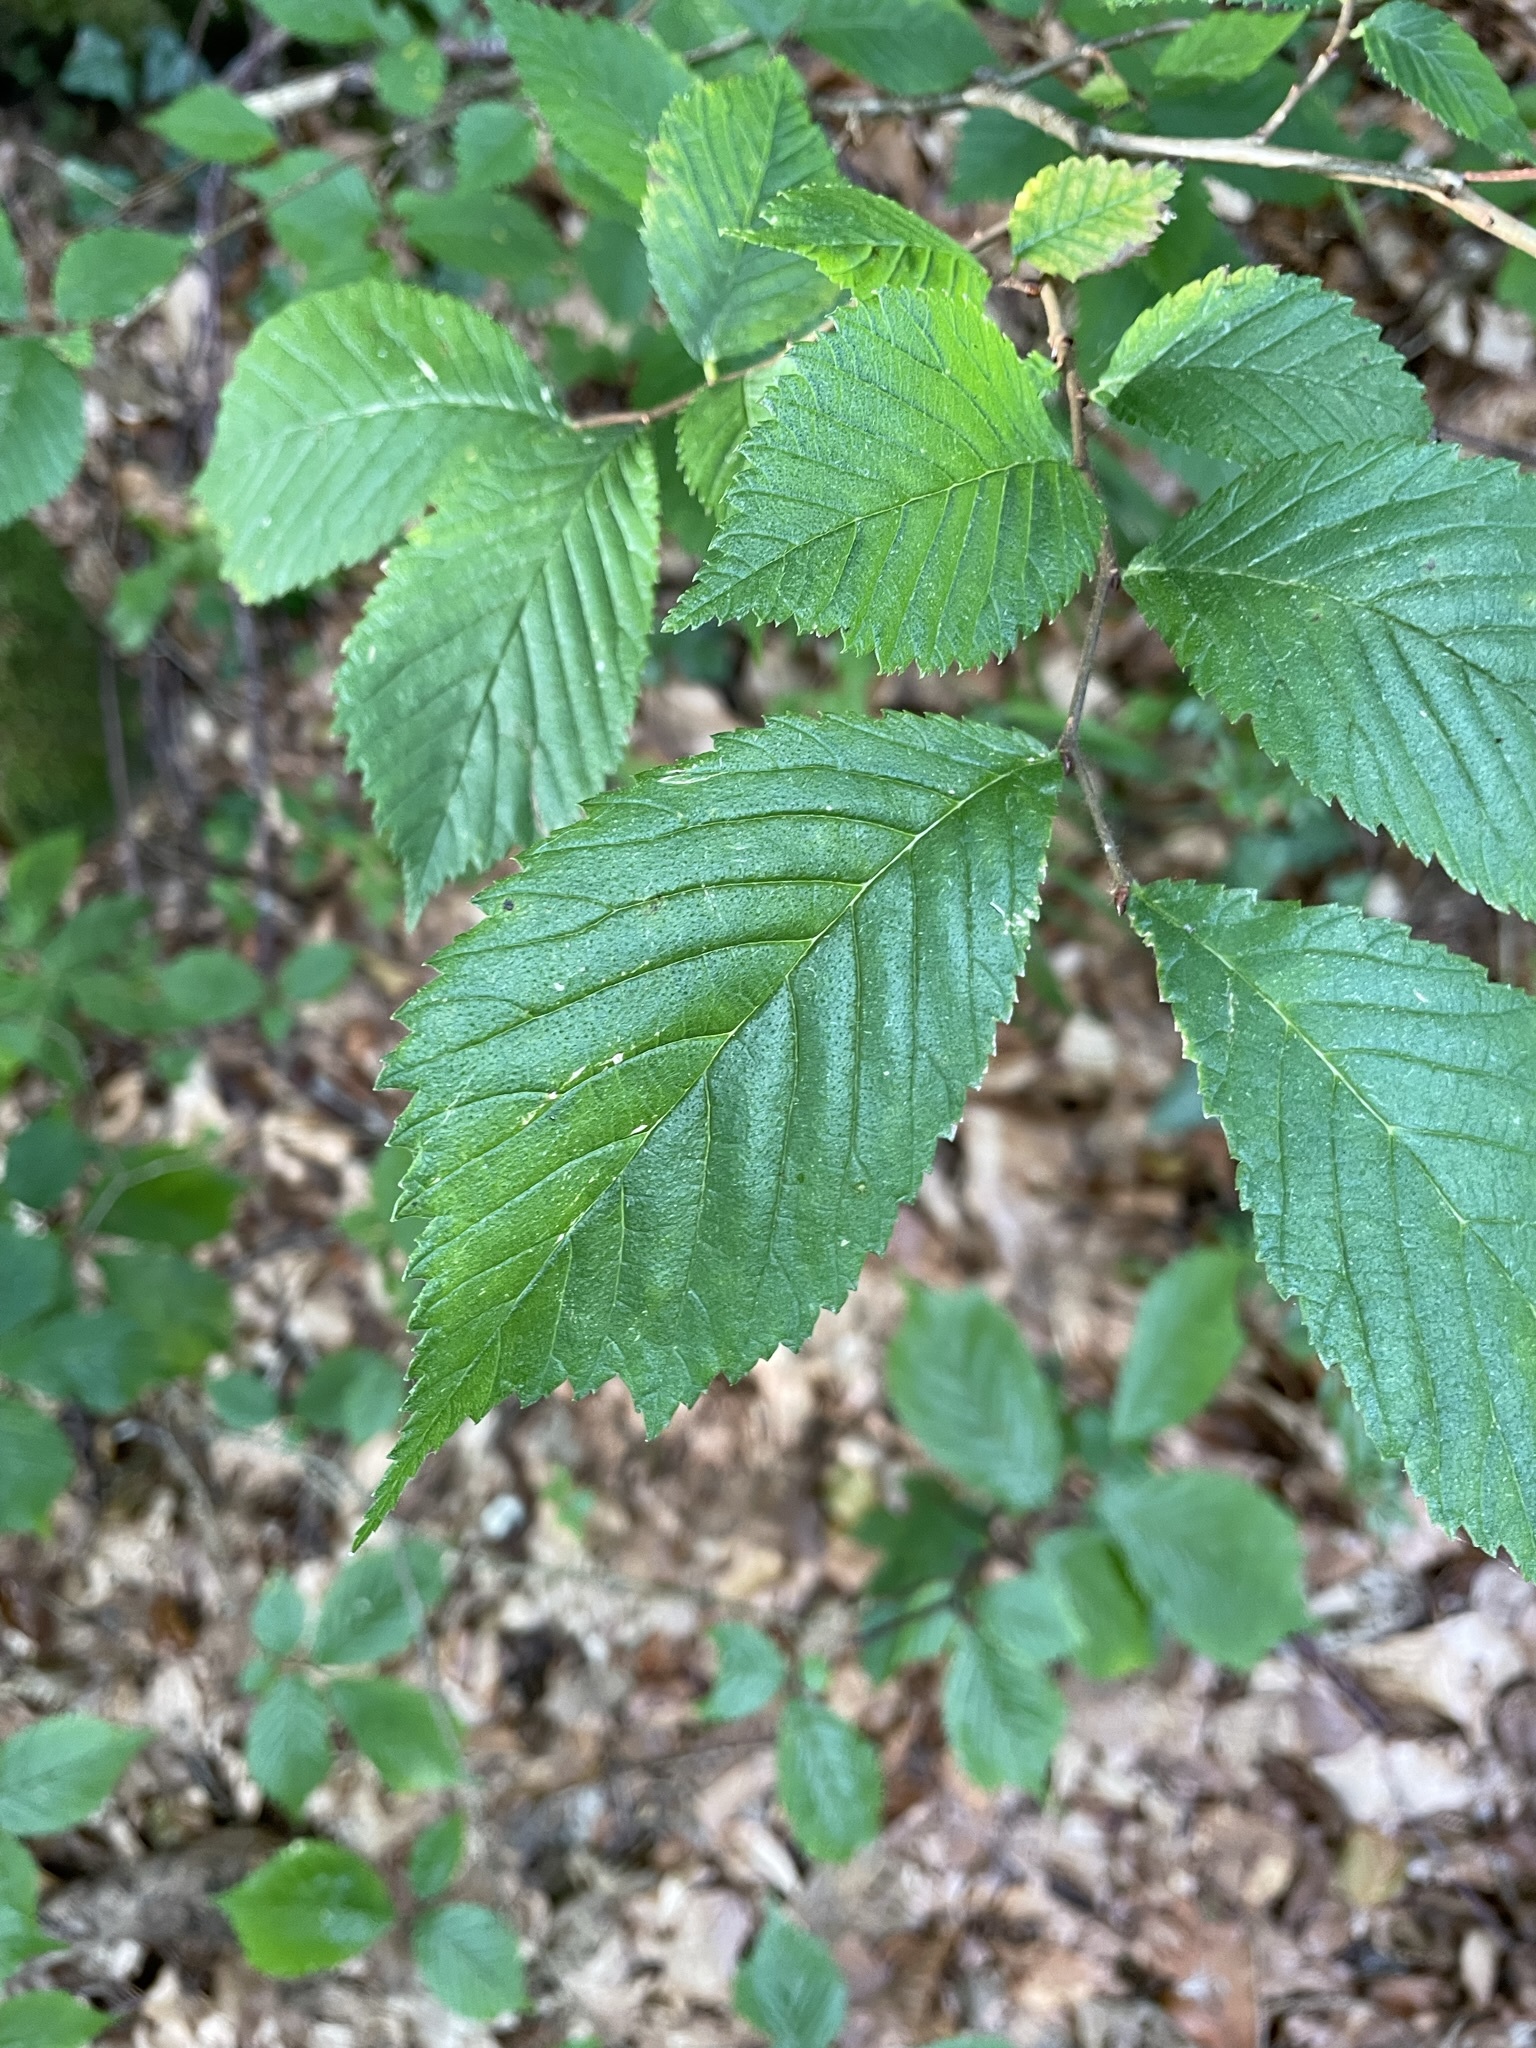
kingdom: Plantae
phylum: Tracheophyta
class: Magnoliopsida
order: Rosales
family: Ulmaceae
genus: Ulmus
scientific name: Ulmus glabra
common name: Wych elm
